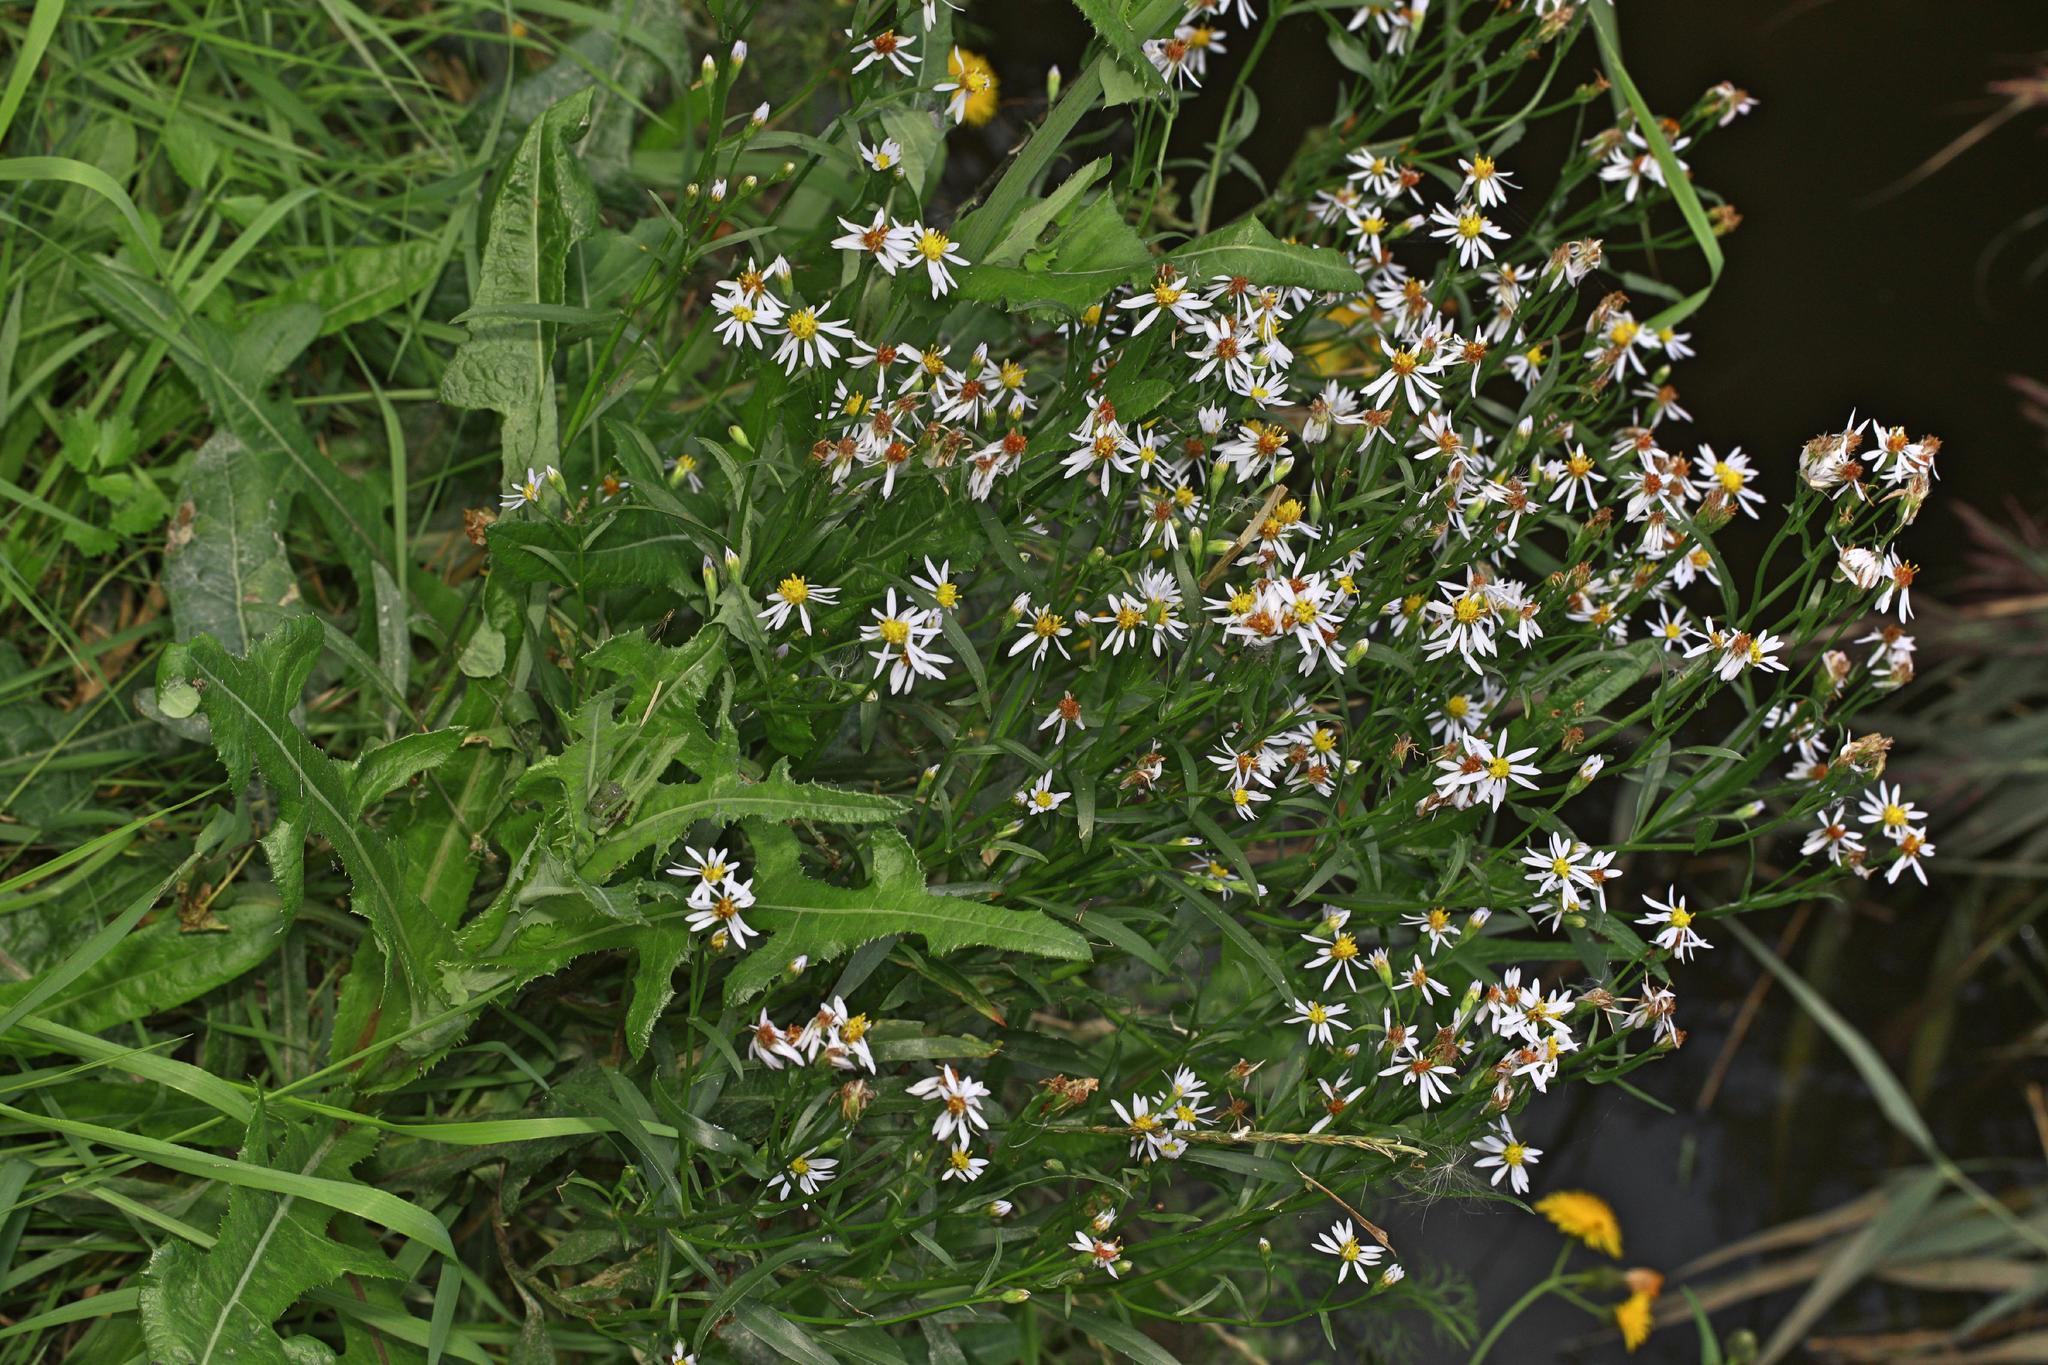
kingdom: Plantae
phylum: Tracheophyta
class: Magnoliopsida
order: Asterales
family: Asteraceae
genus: Tripolium
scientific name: Tripolium pannonicum
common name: Sea aster
